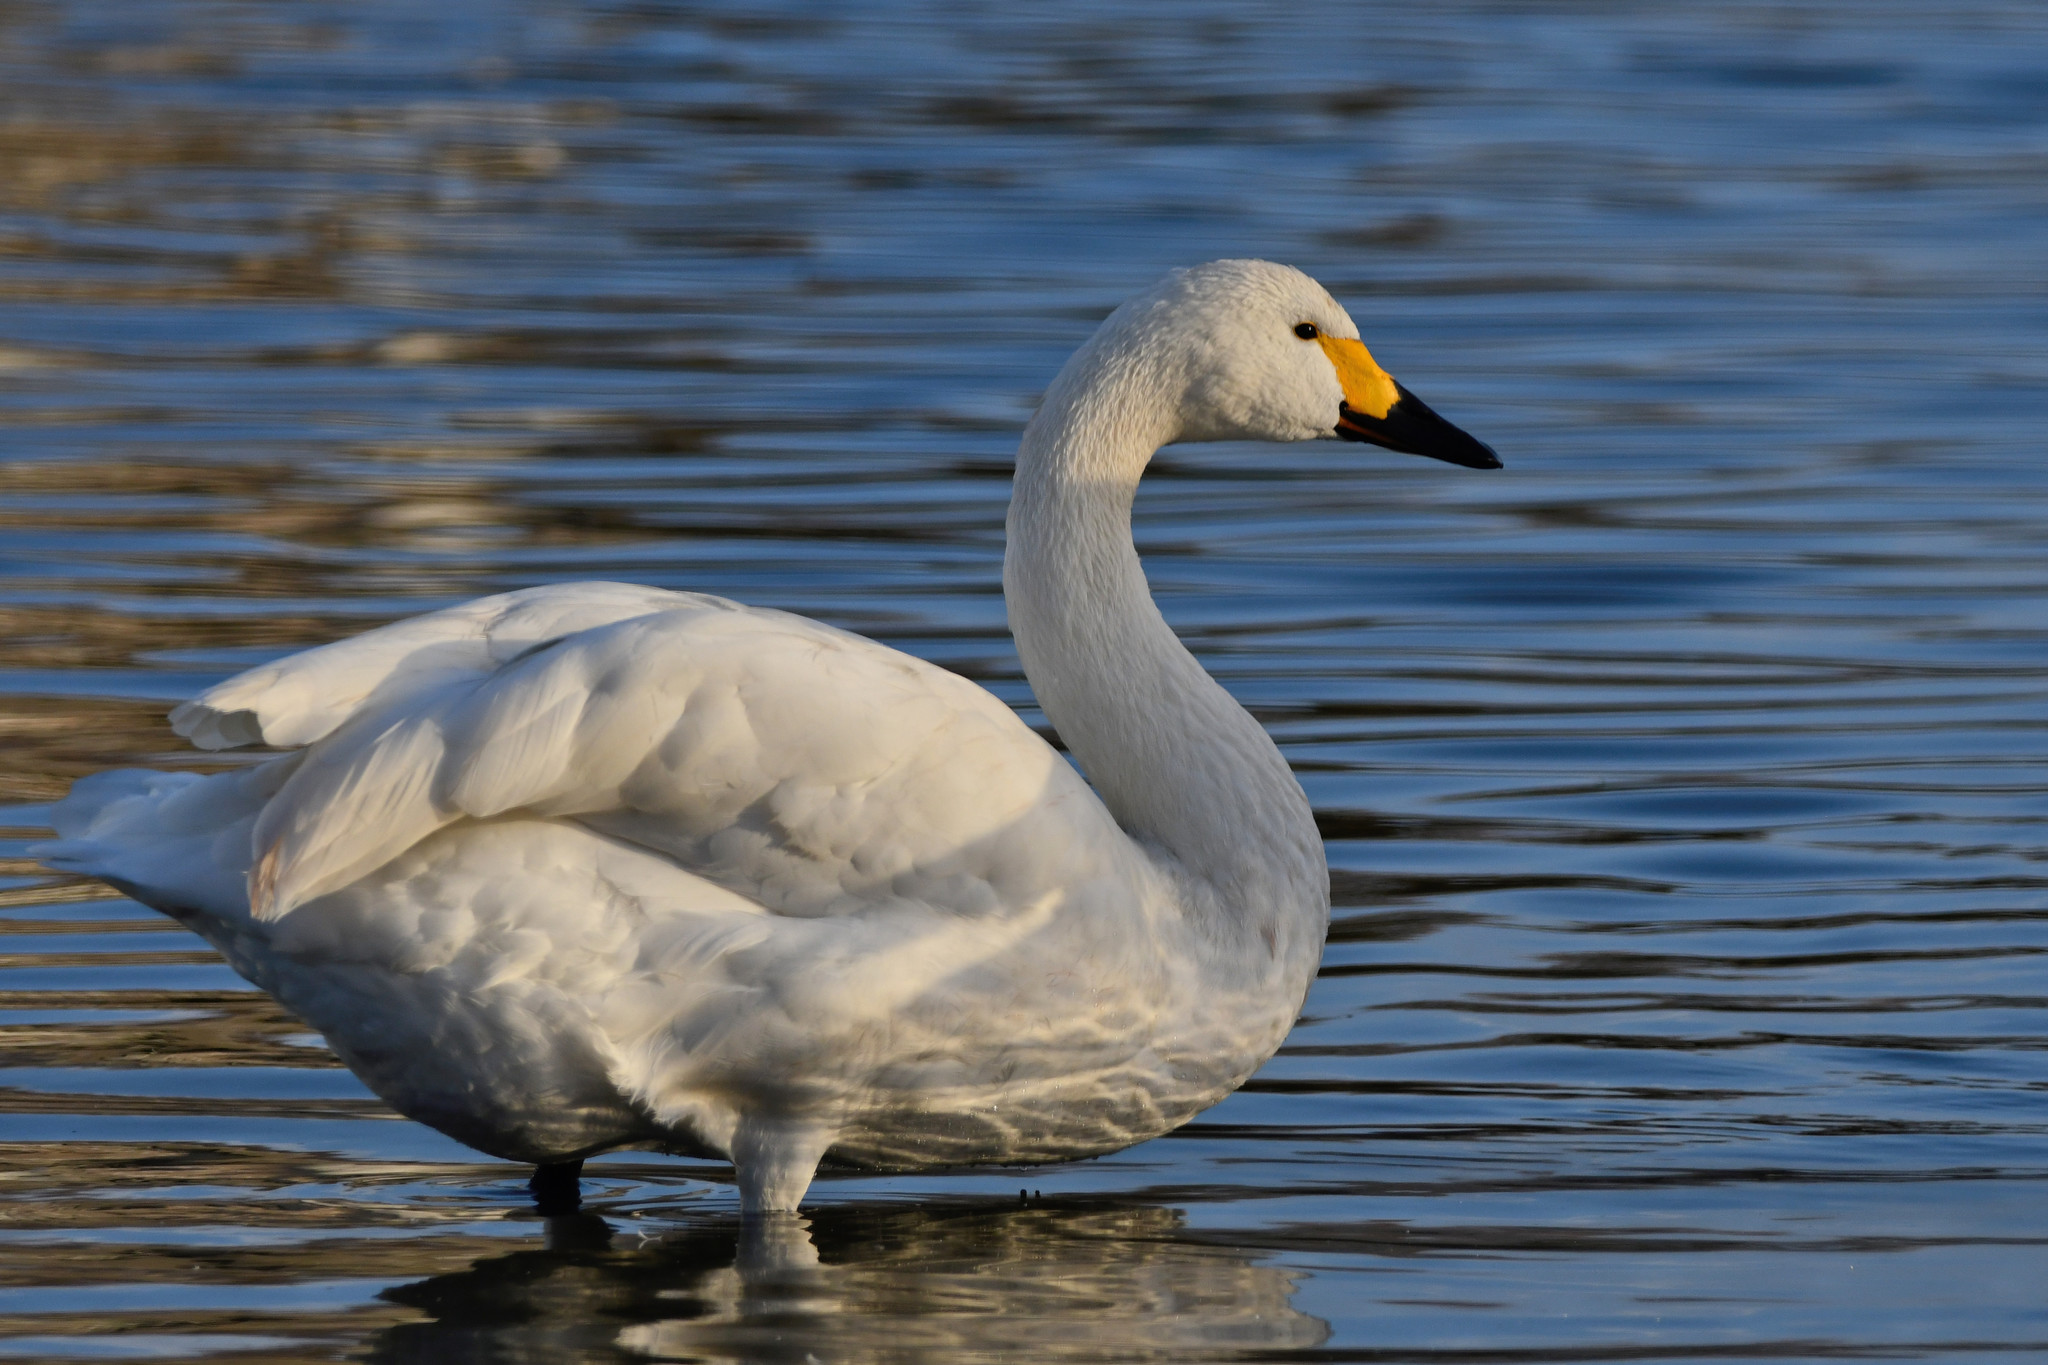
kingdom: Animalia
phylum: Chordata
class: Aves
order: Anseriformes
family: Anatidae
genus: Cygnus
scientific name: Cygnus columbianus
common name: Tundra swan
